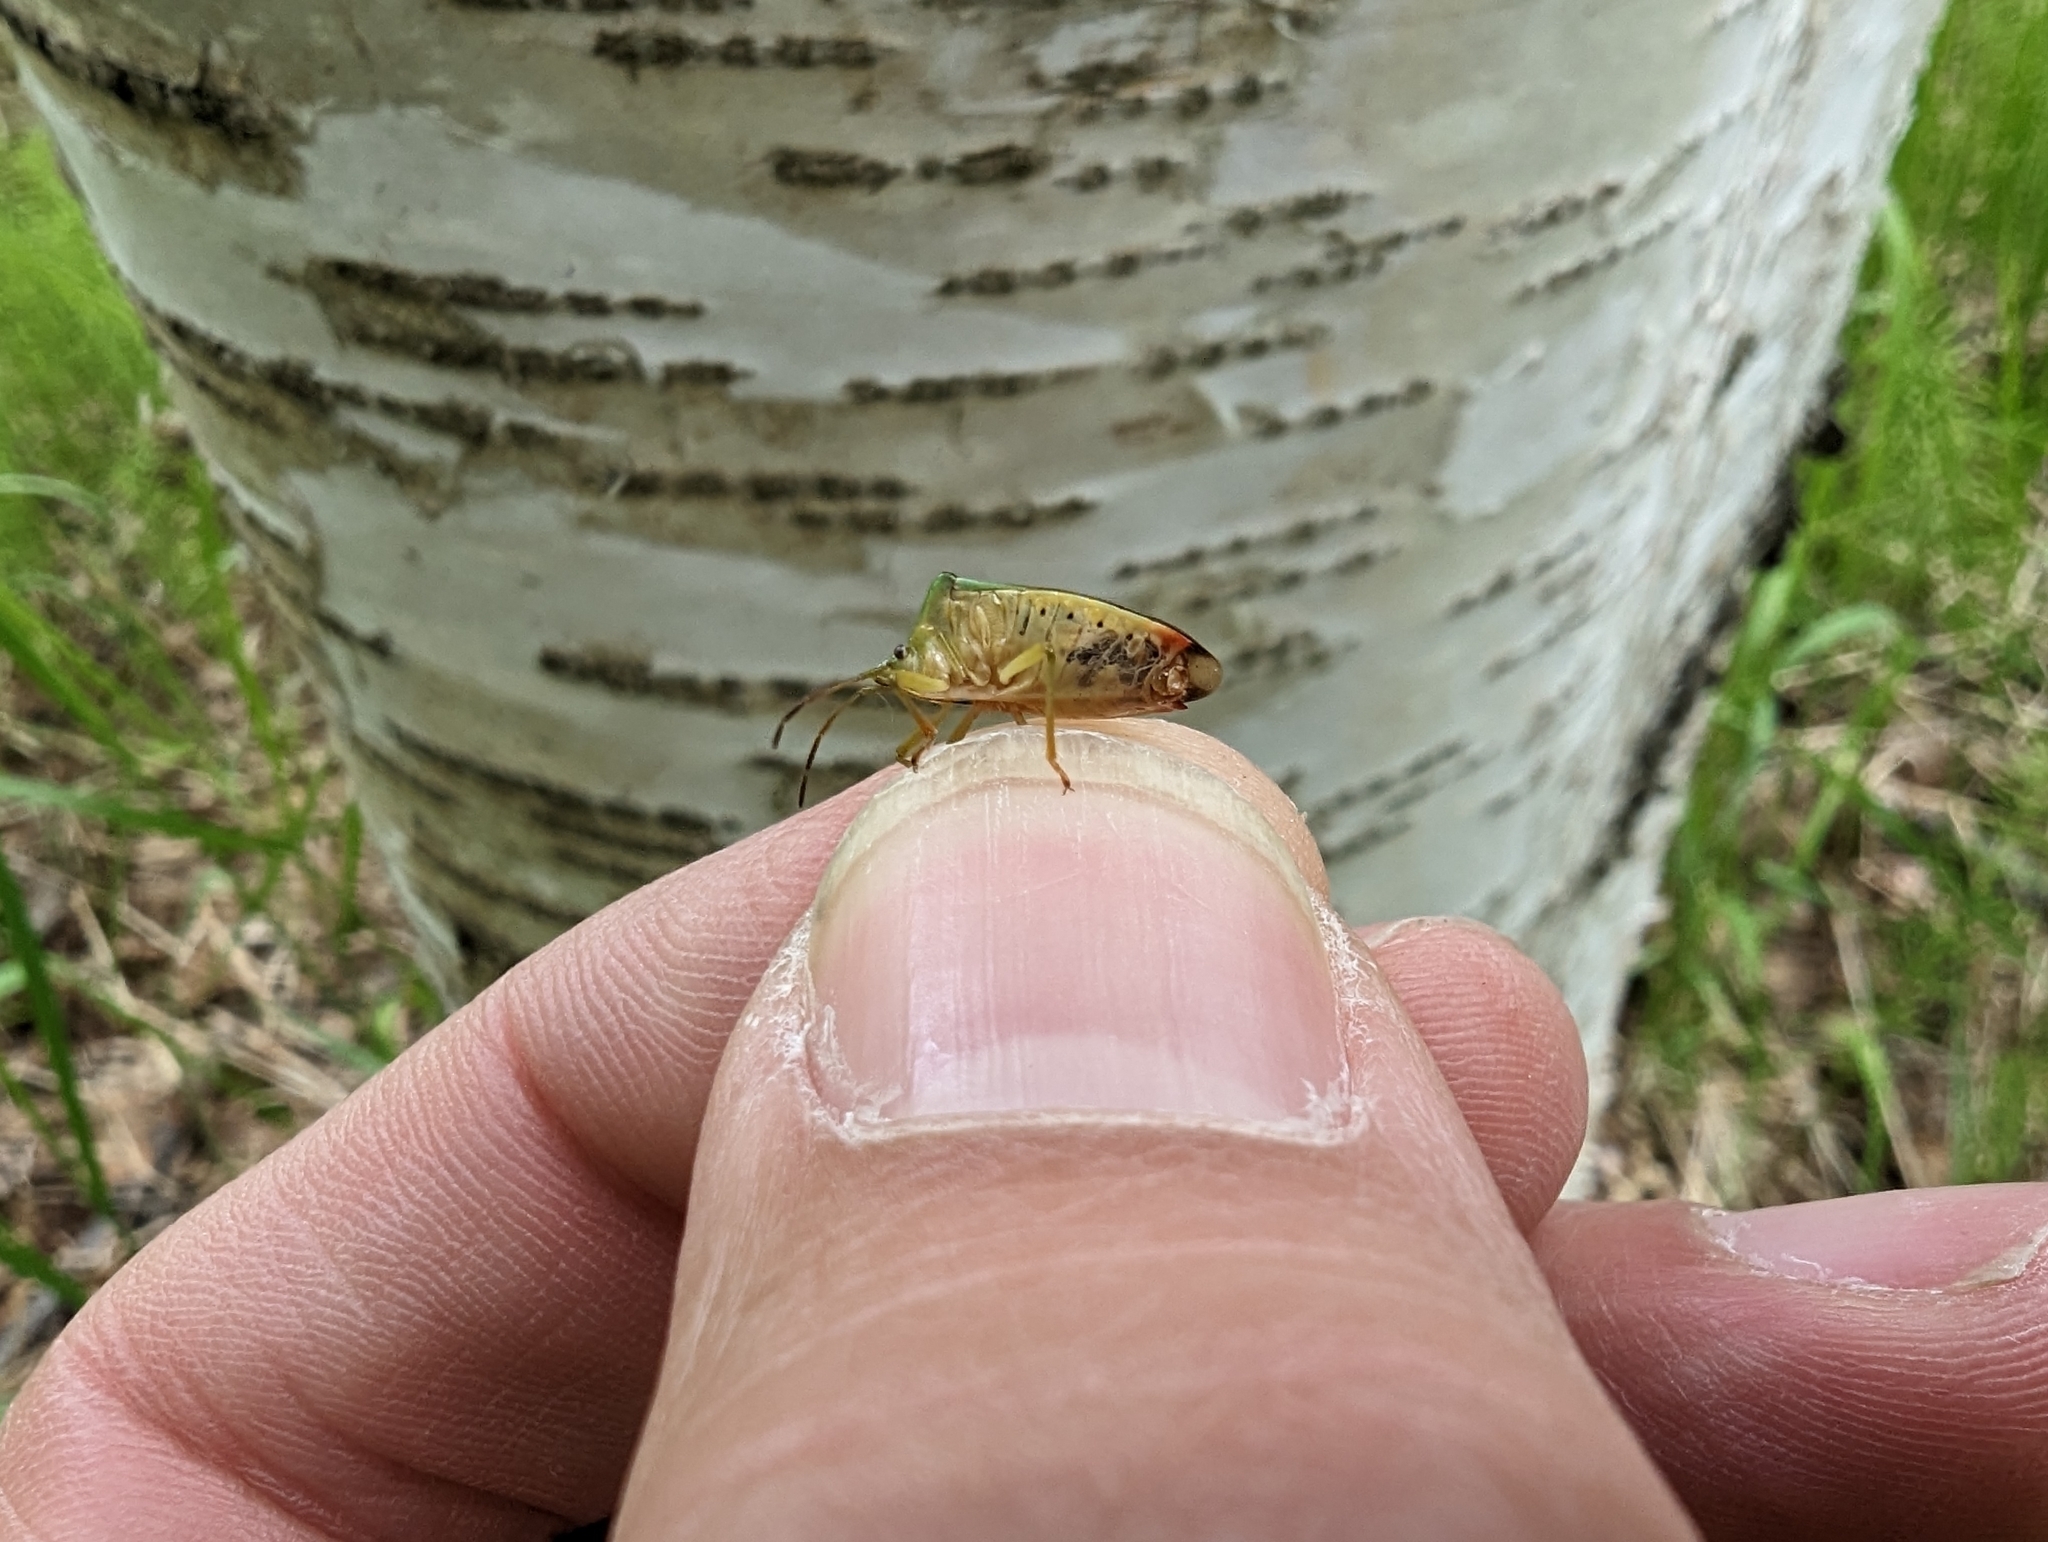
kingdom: Animalia
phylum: Arthropoda
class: Insecta
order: Hemiptera
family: Acanthosomatidae
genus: Elasmostethus
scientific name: Elasmostethus interstinctus
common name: Birch shieldbug
